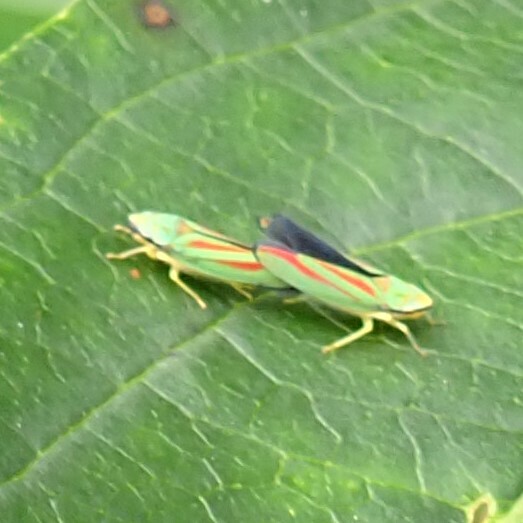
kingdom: Animalia
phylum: Arthropoda
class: Insecta
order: Hemiptera
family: Cicadellidae
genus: Graphocephala
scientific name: Graphocephala fennahi
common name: Rhododendron leafhopper
